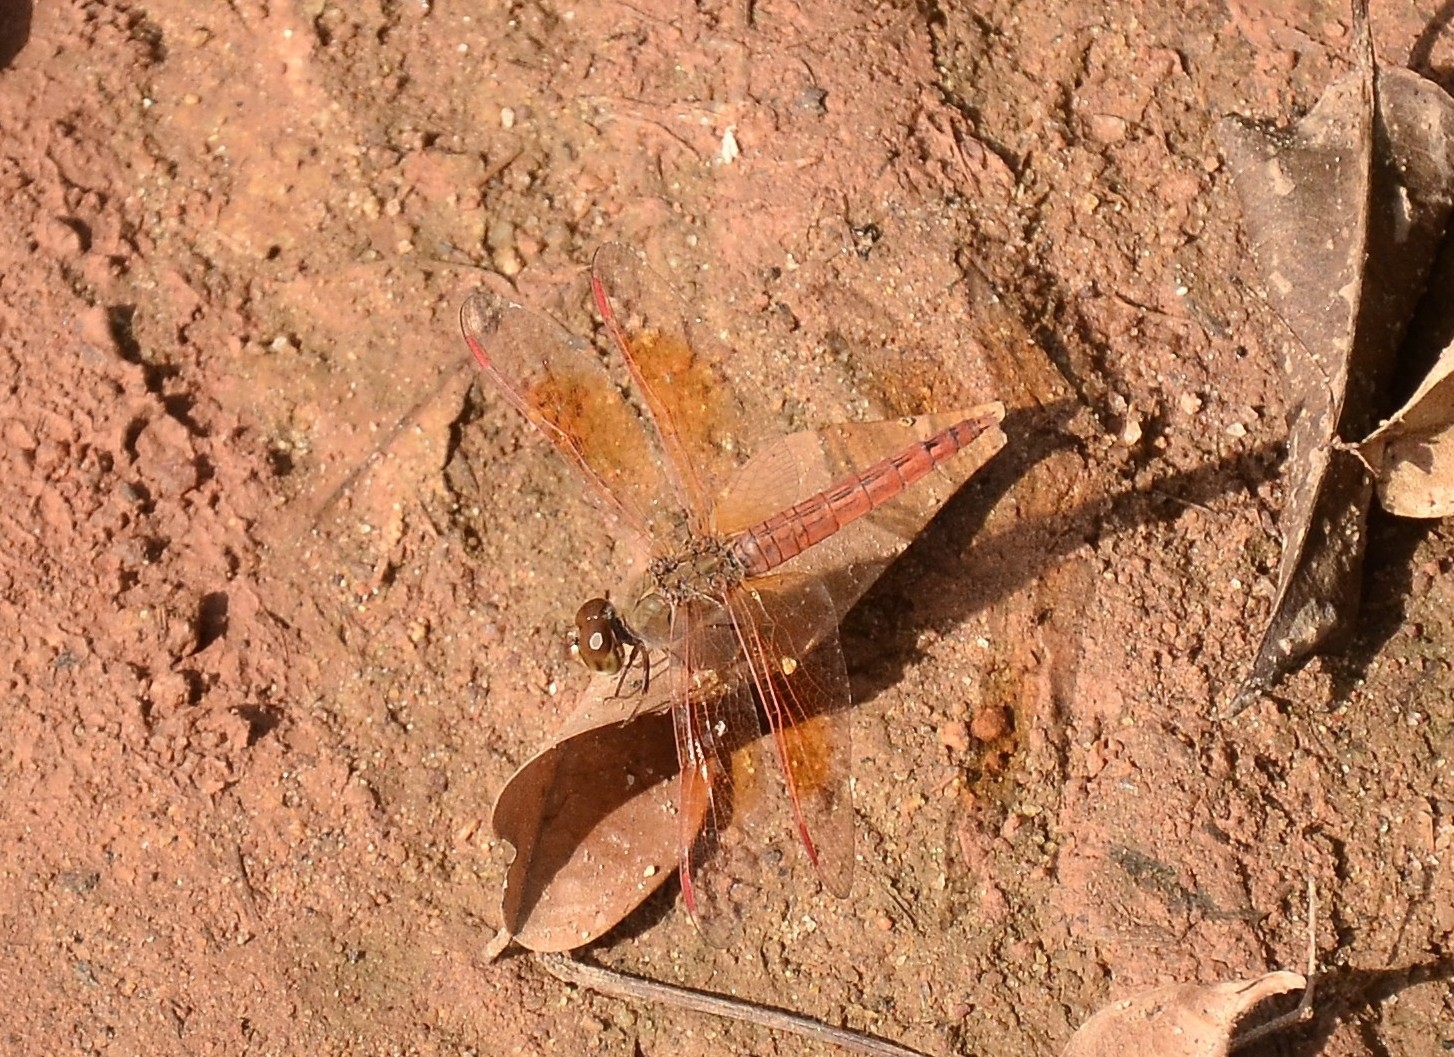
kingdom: Animalia
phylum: Arthropoda
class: Insecta
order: Odonata
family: Libellulidae
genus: Brachythemis
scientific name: Brachythemis contaminata
